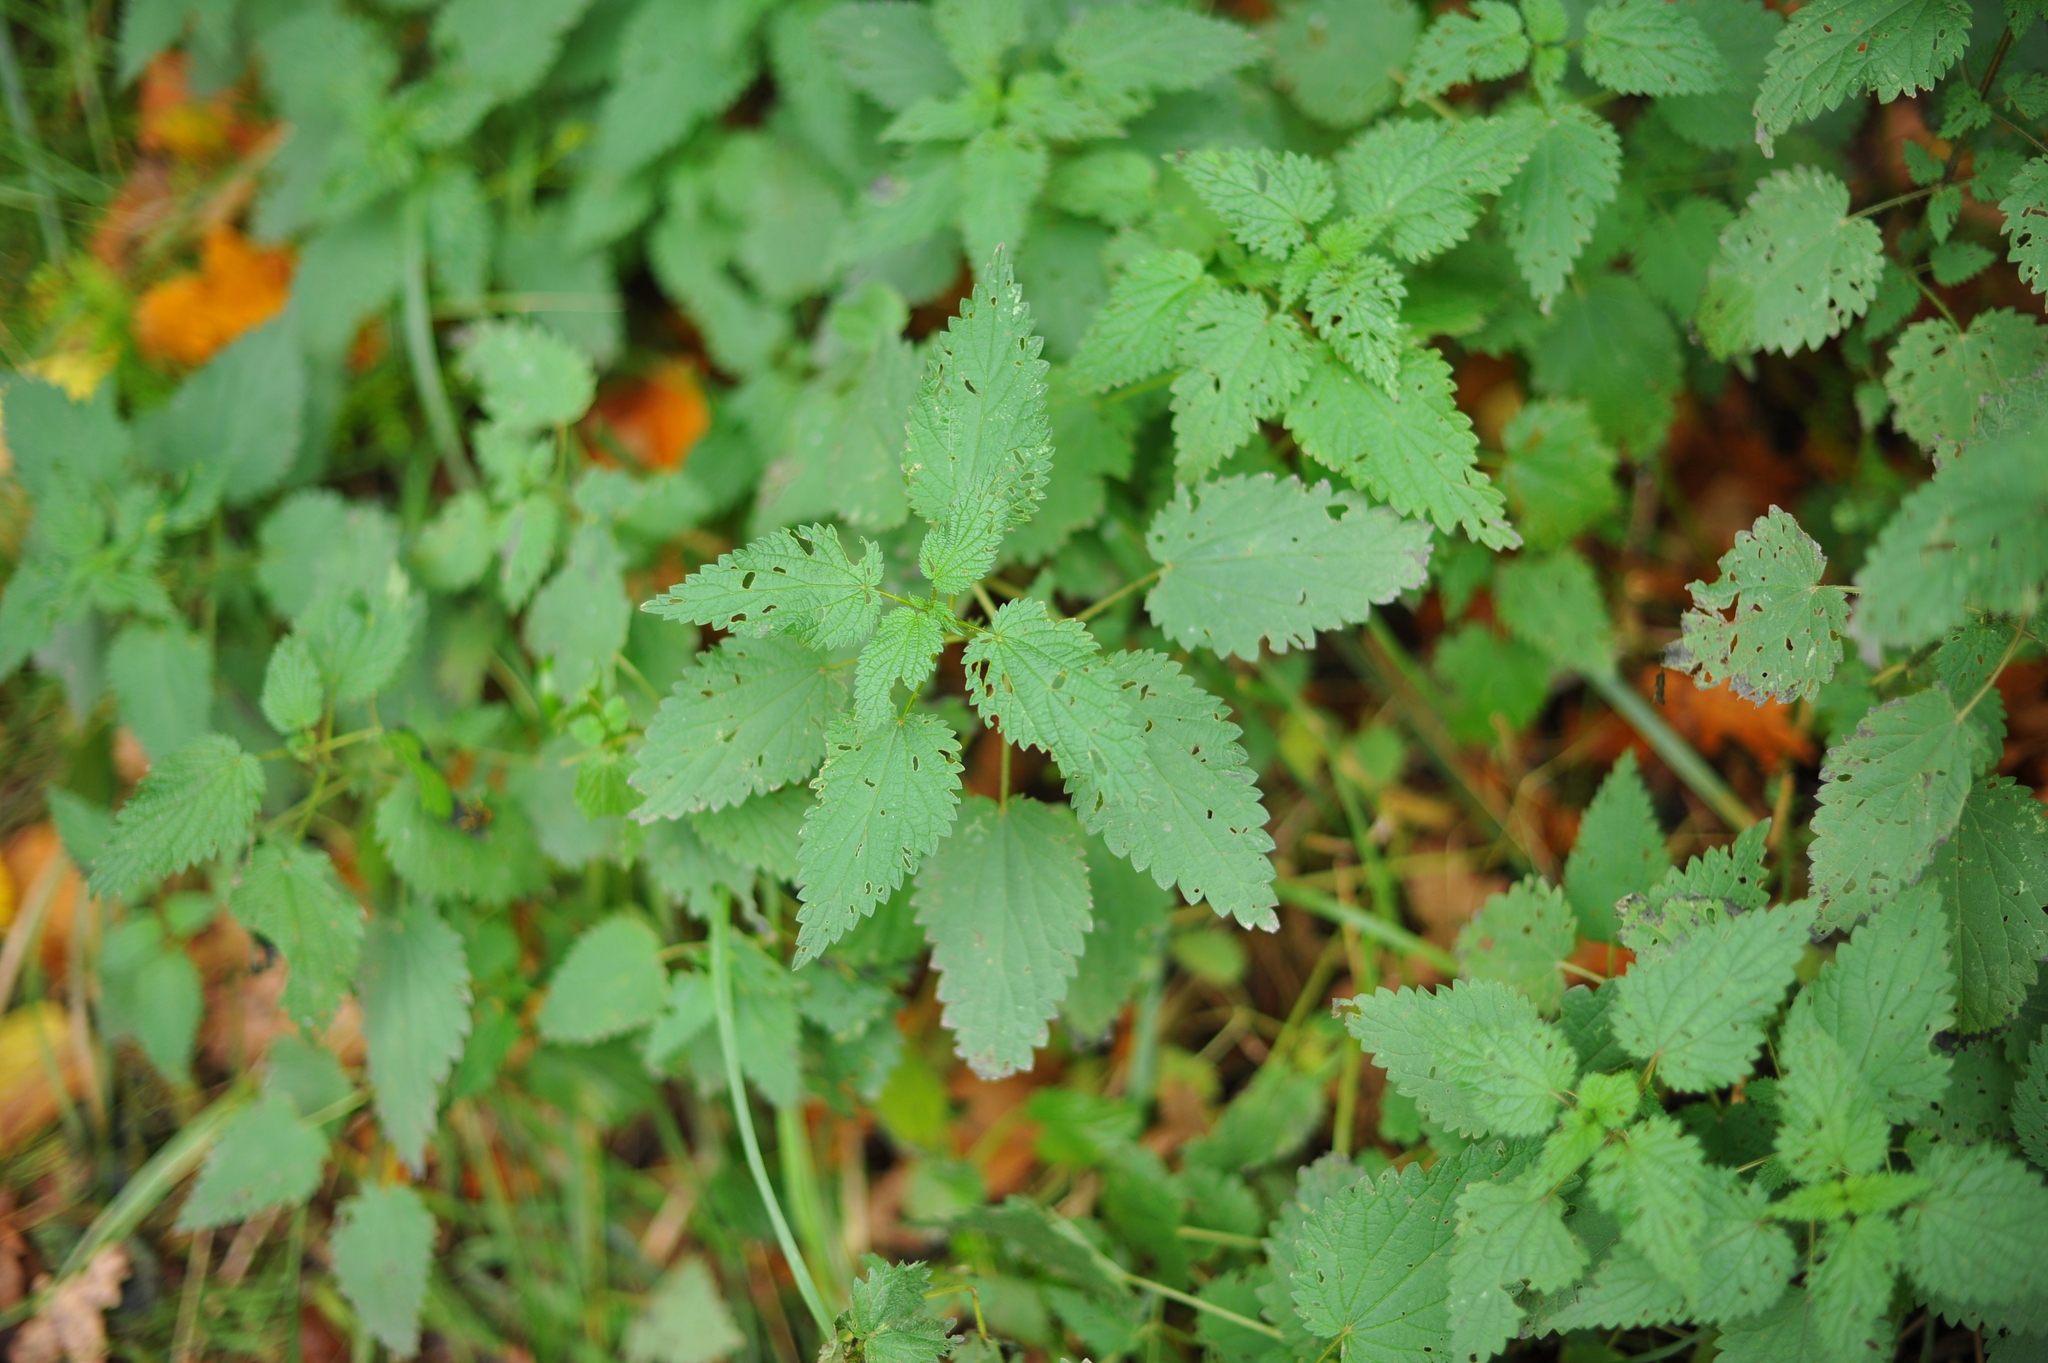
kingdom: Plantae
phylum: Tracheophyta
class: Magnoliopsida
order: Rosales
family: Urticaceae
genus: Urtica
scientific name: Urtica dioica
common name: Common nettle
